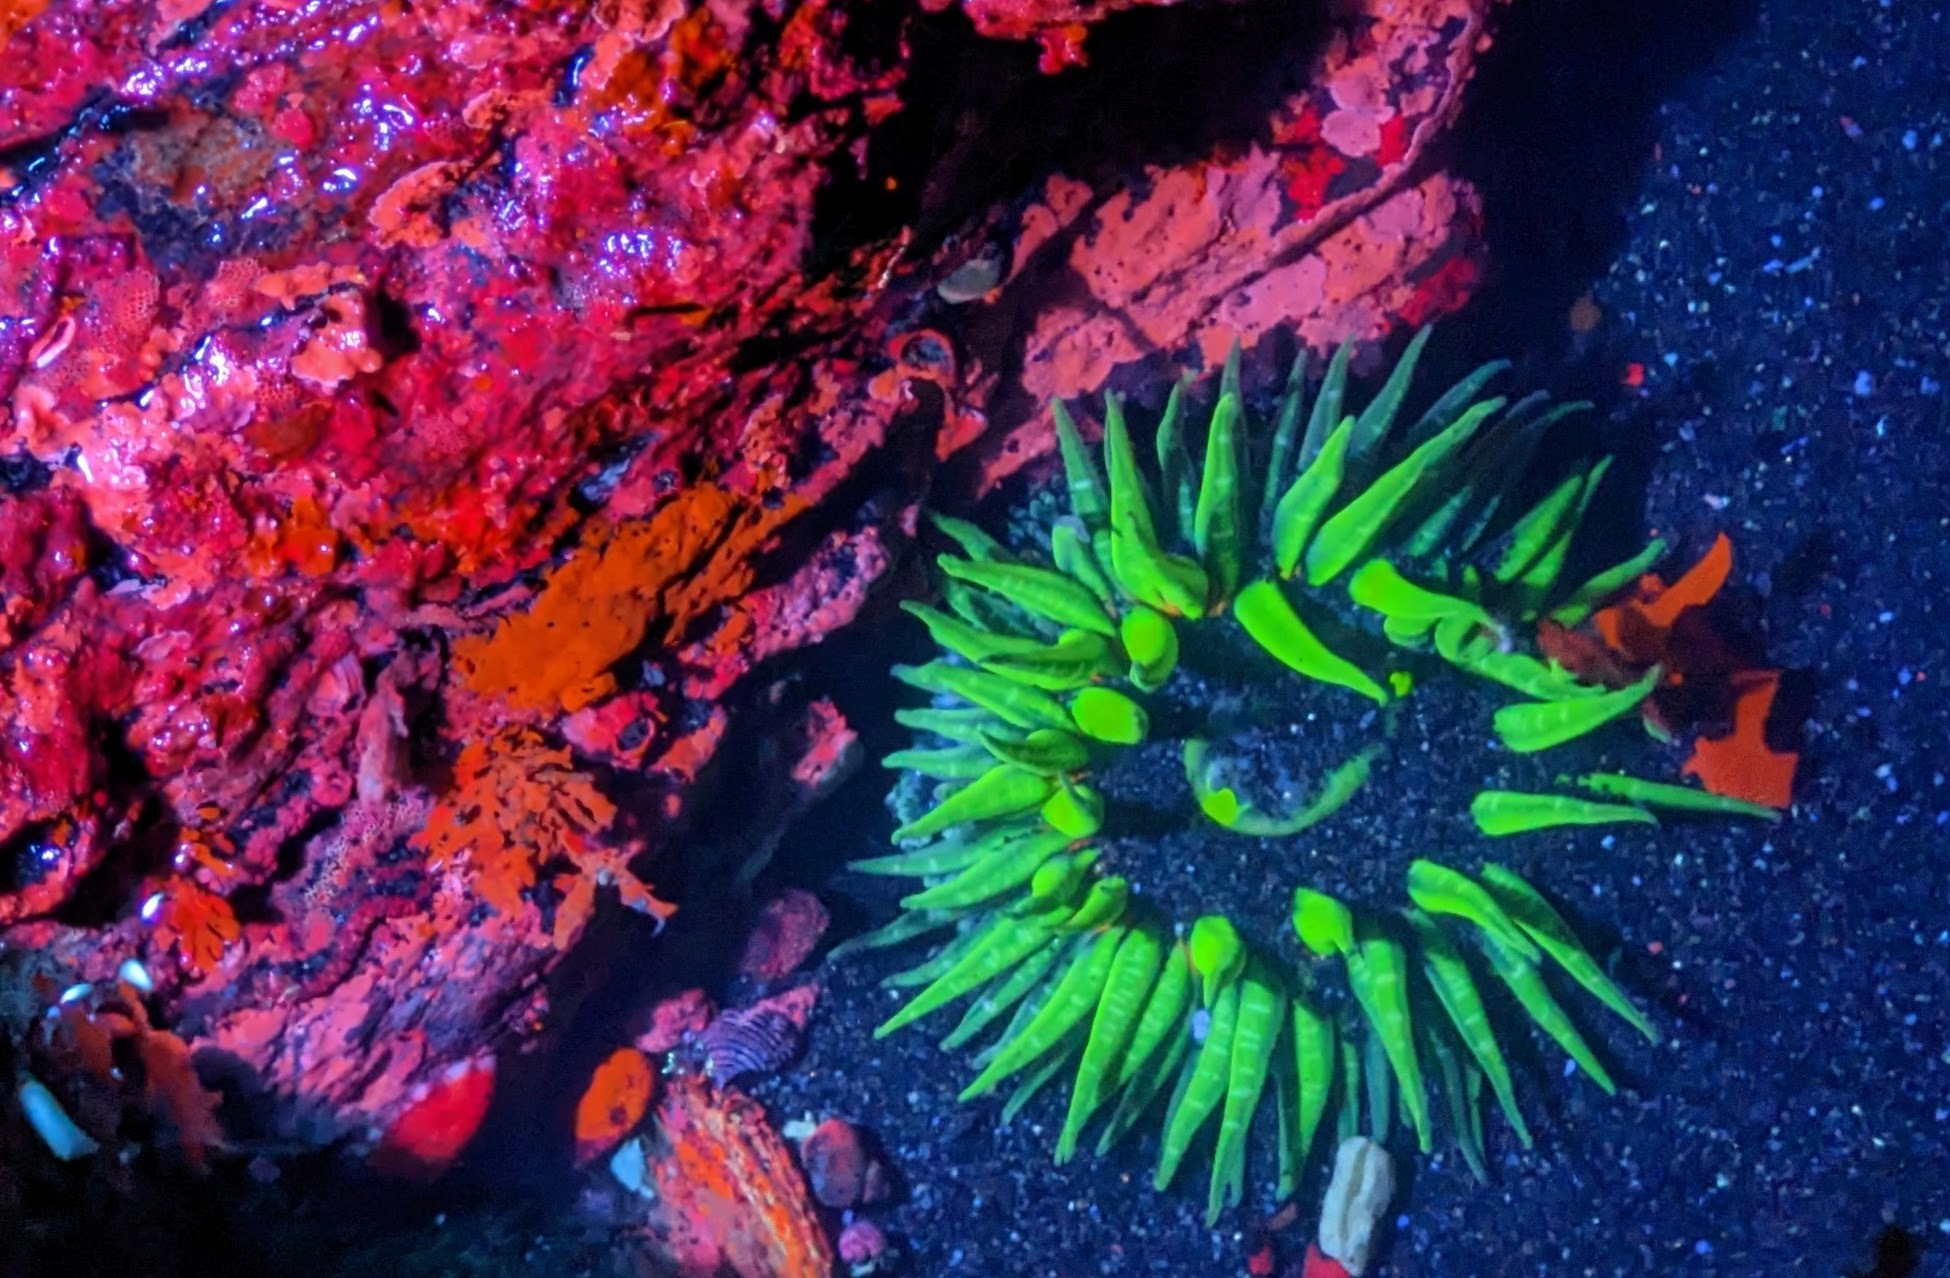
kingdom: Animalia
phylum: Cnidaria
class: Anthozoa
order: Actiniaria
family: Actiniidae
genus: Anthopleura
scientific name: Anthopleura artemisia
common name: Buried sea anemone
